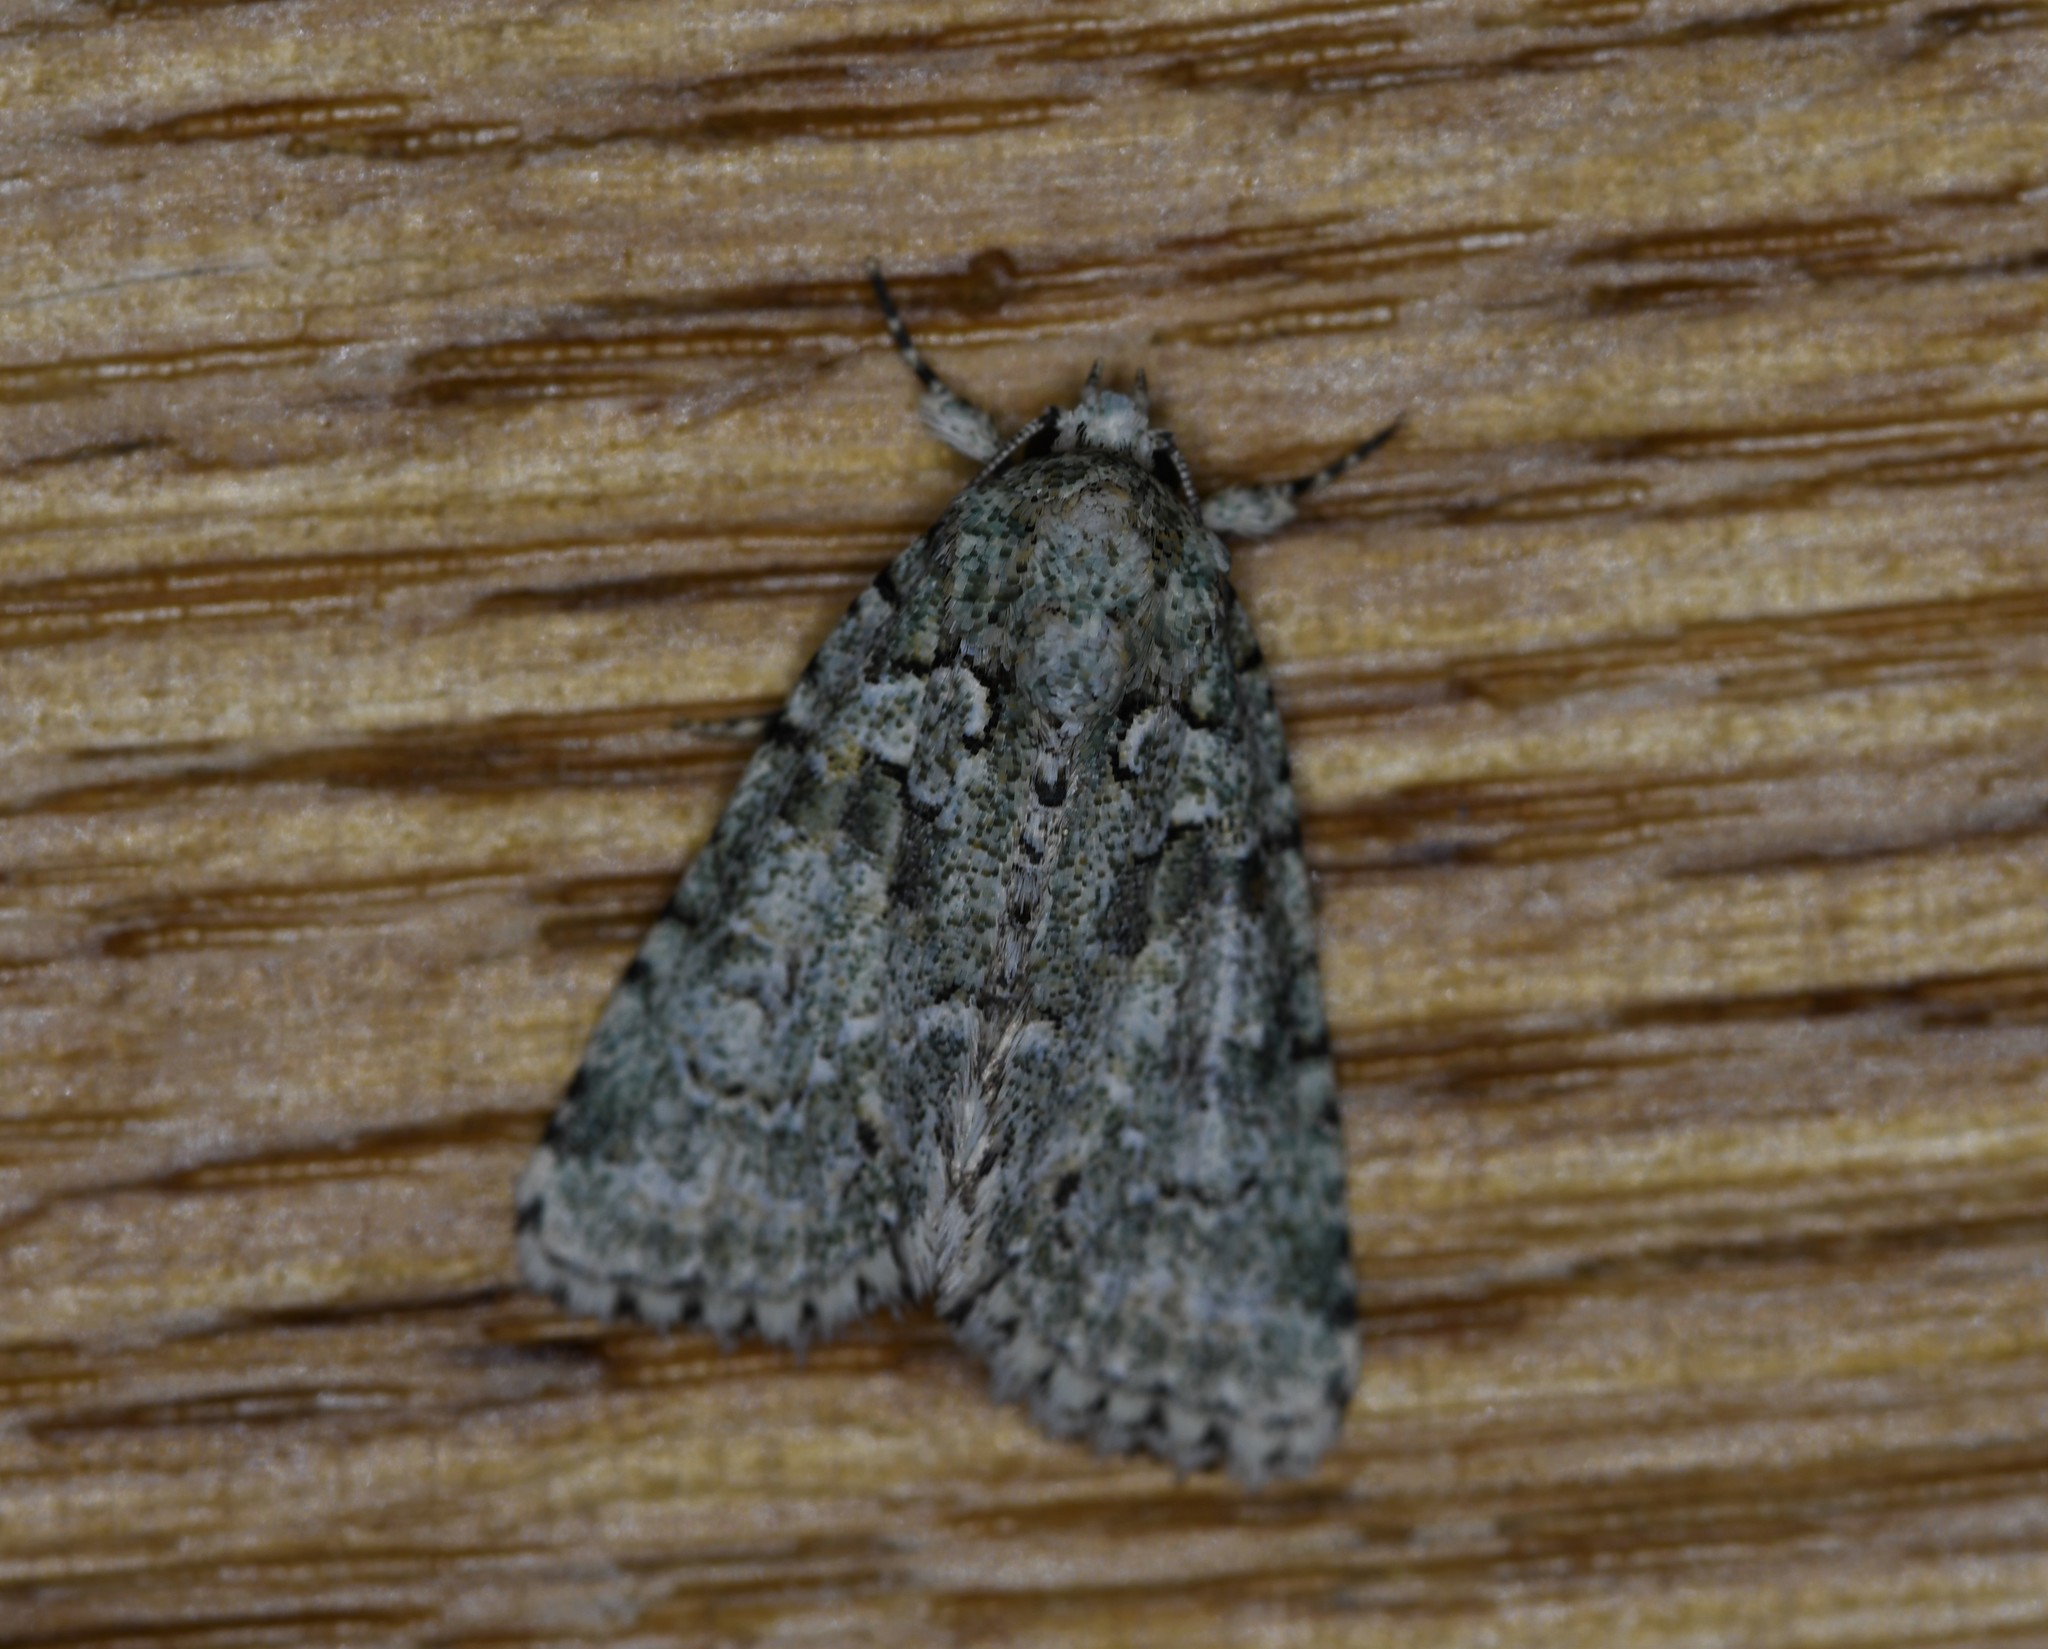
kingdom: Animalia
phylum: Arthropoda
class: Insecta
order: Lepidoptera
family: Noctuidae
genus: Nyctobrya
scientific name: Nyctobrya muralis
